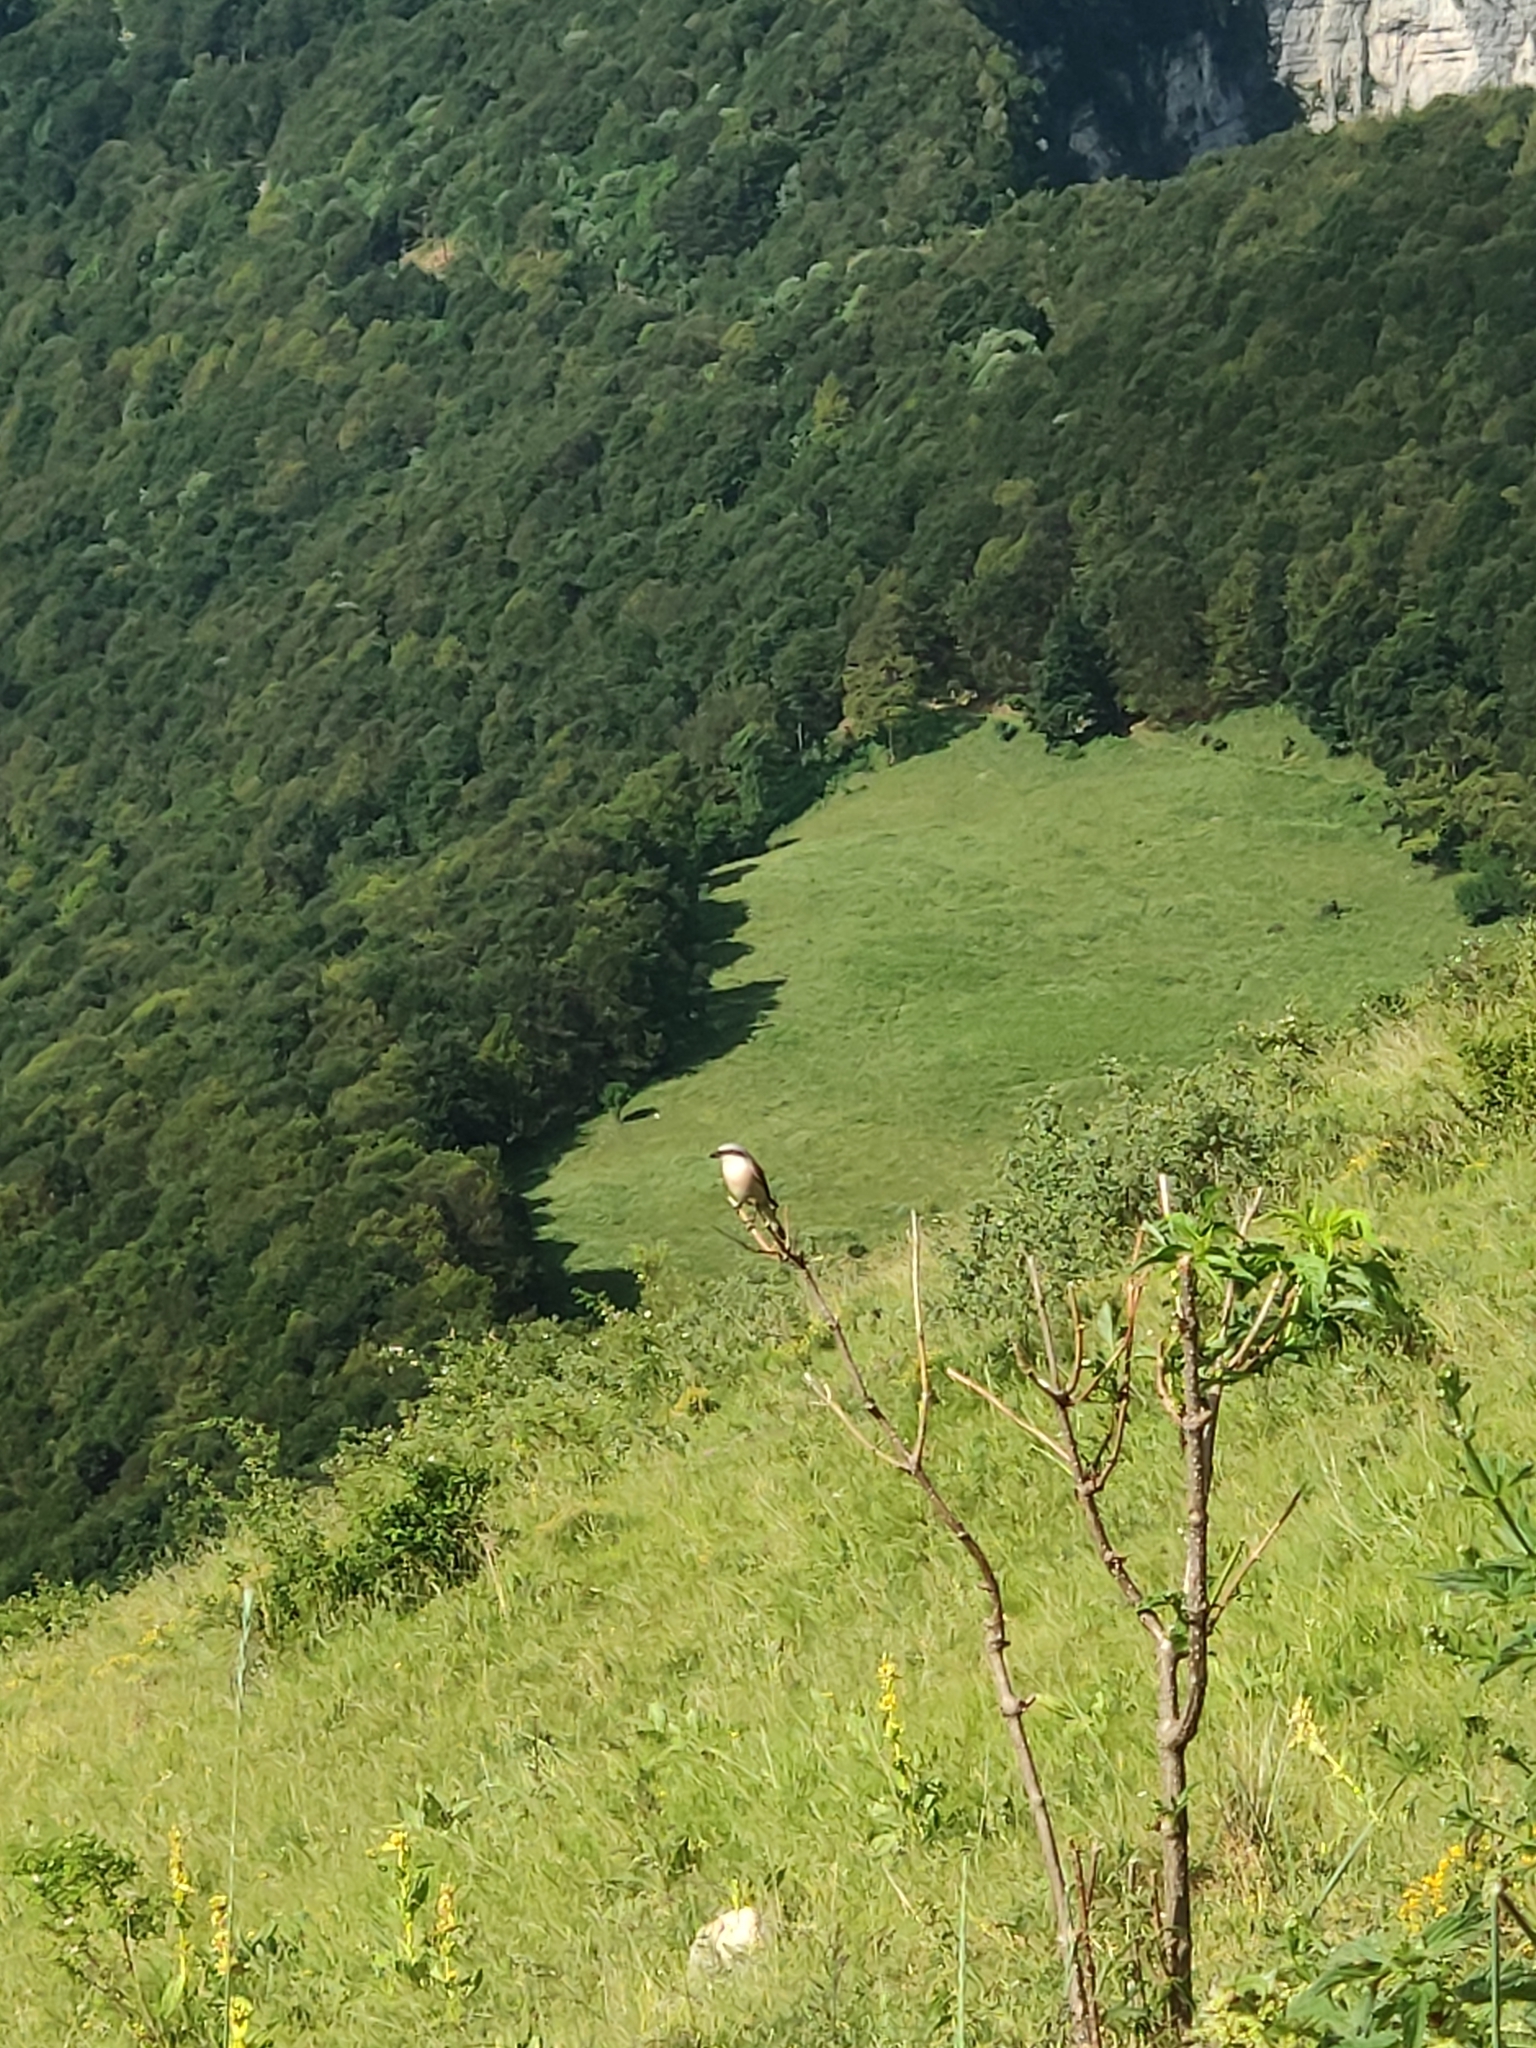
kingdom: Animalia
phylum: Chordata
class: Aves
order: Passeriformes
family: Laniidae
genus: Lanius
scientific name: Lanius collurio
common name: Red-backed shrike
